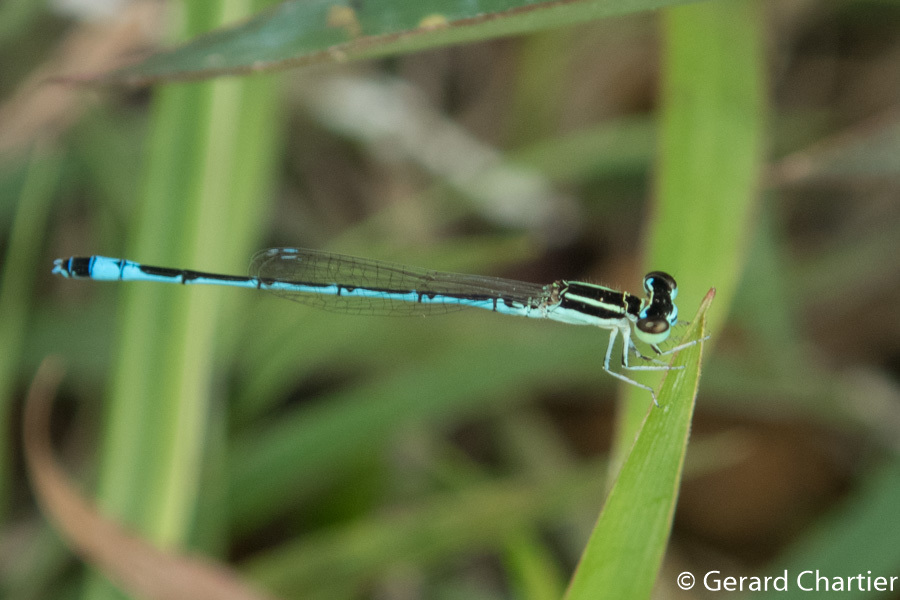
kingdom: Animalia
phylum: Arthropoda
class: Insecta
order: Odonata
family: Coenagrionidae
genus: Agriocnemis
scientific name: Agriocnemis nana
